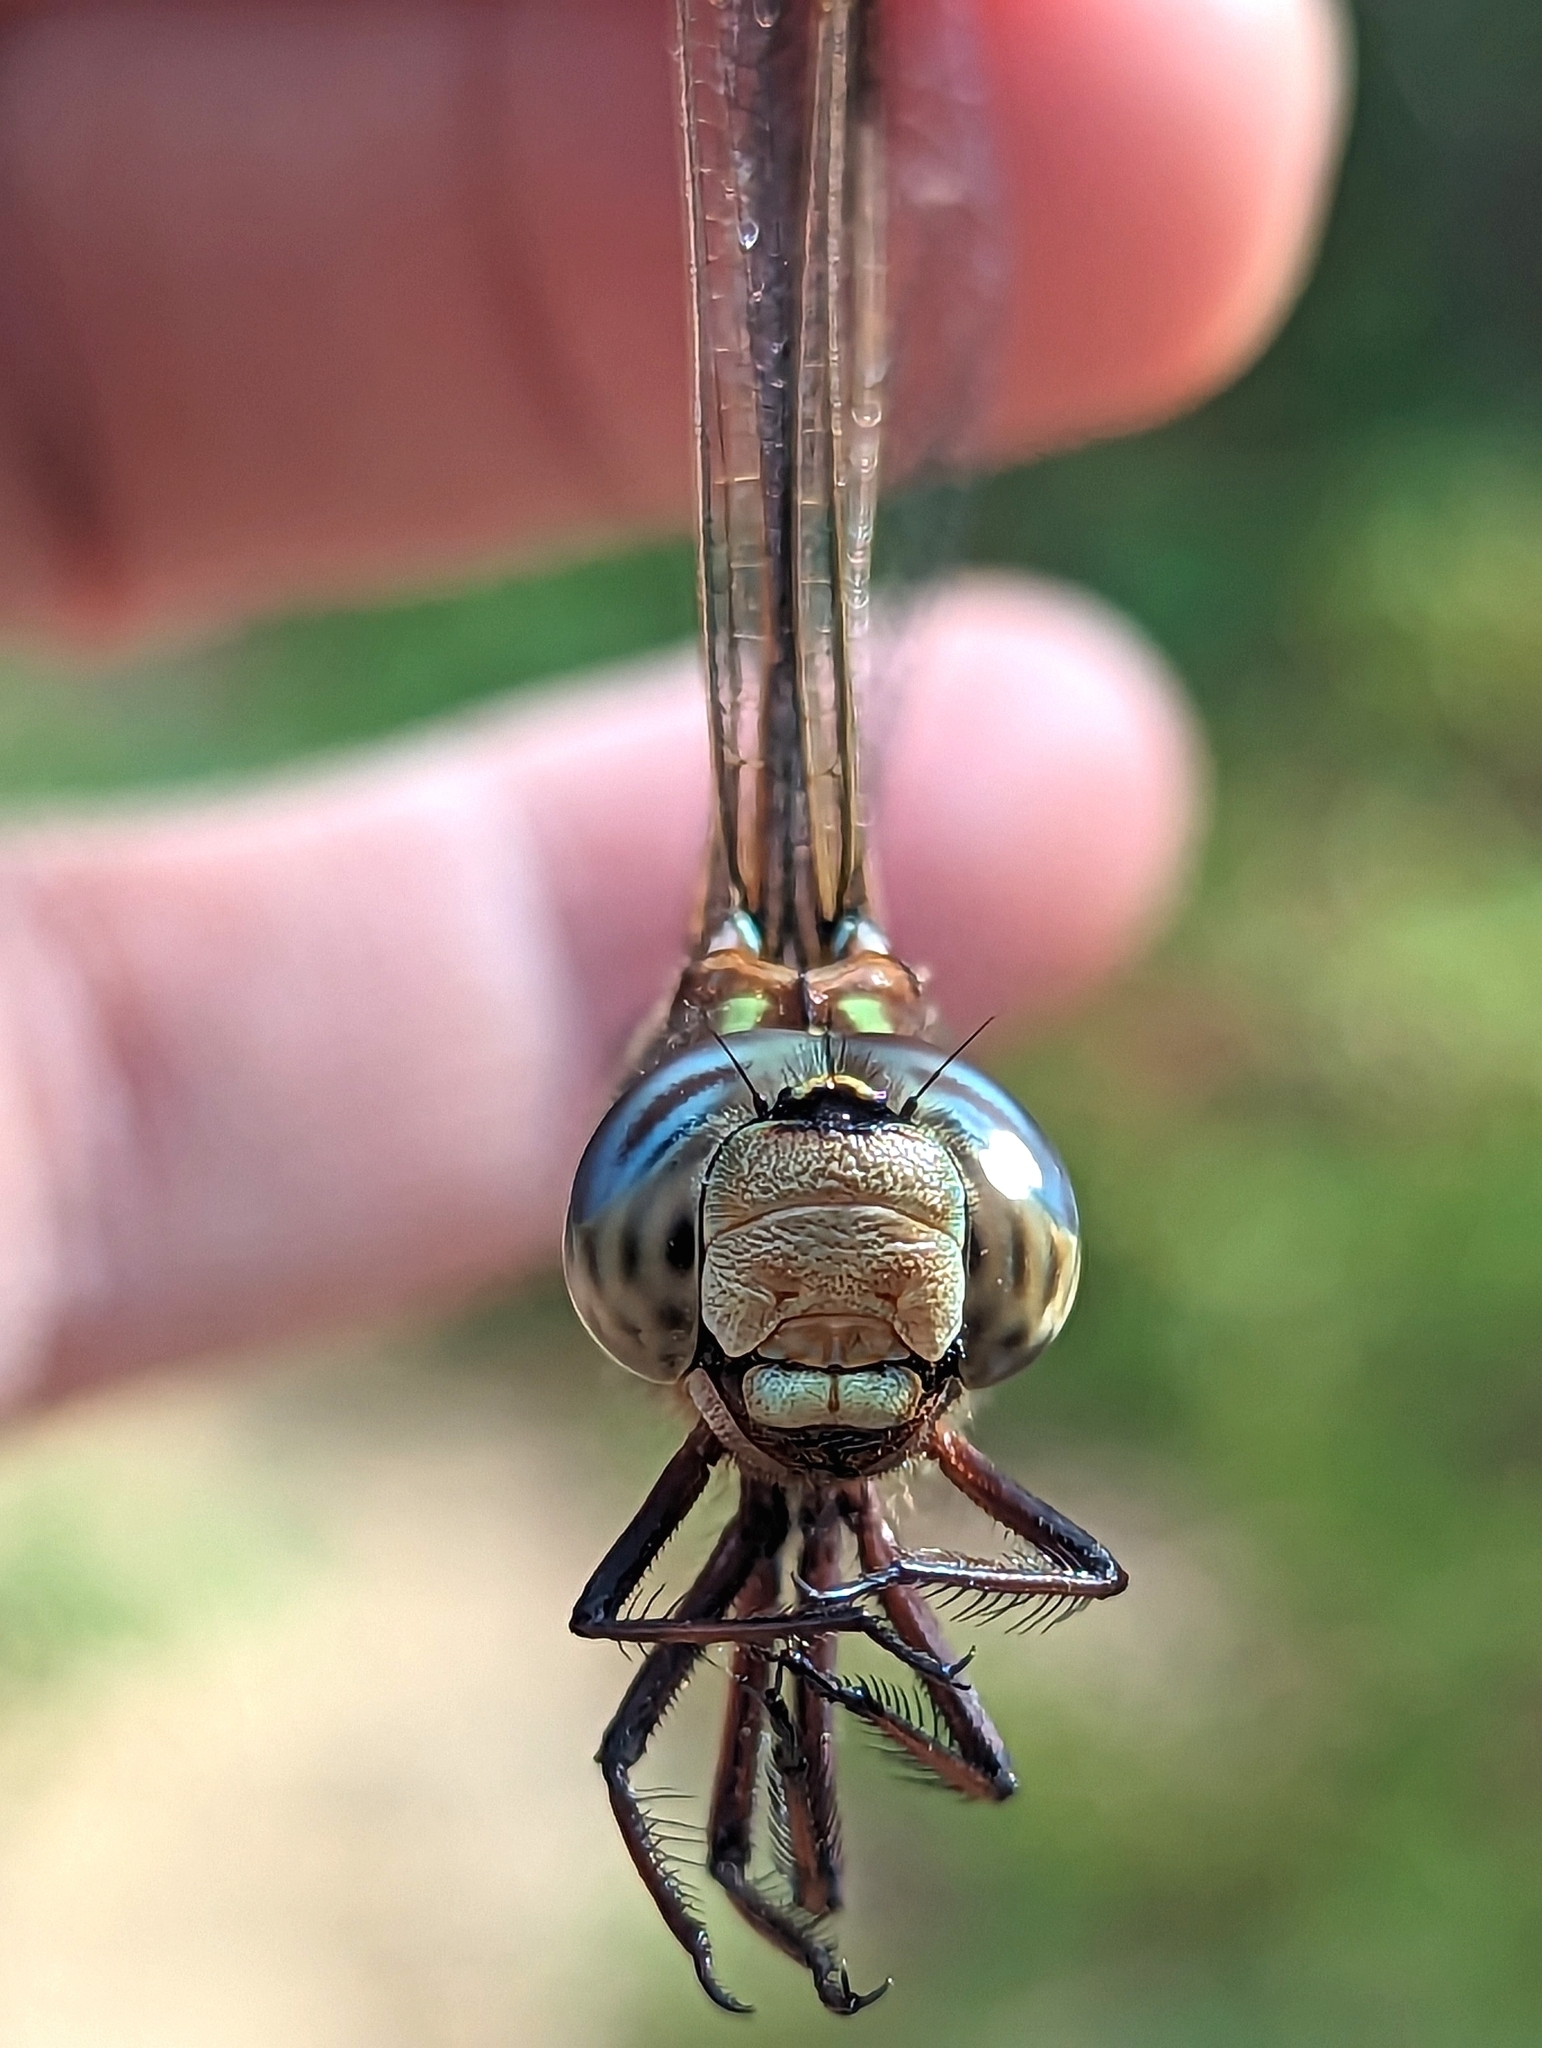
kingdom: Animalia
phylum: Arthropoda
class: Insecta
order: Odonata
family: Aeshnidae
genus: Aeshna
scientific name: Aeshna constricta
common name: Lance-tipped darner
